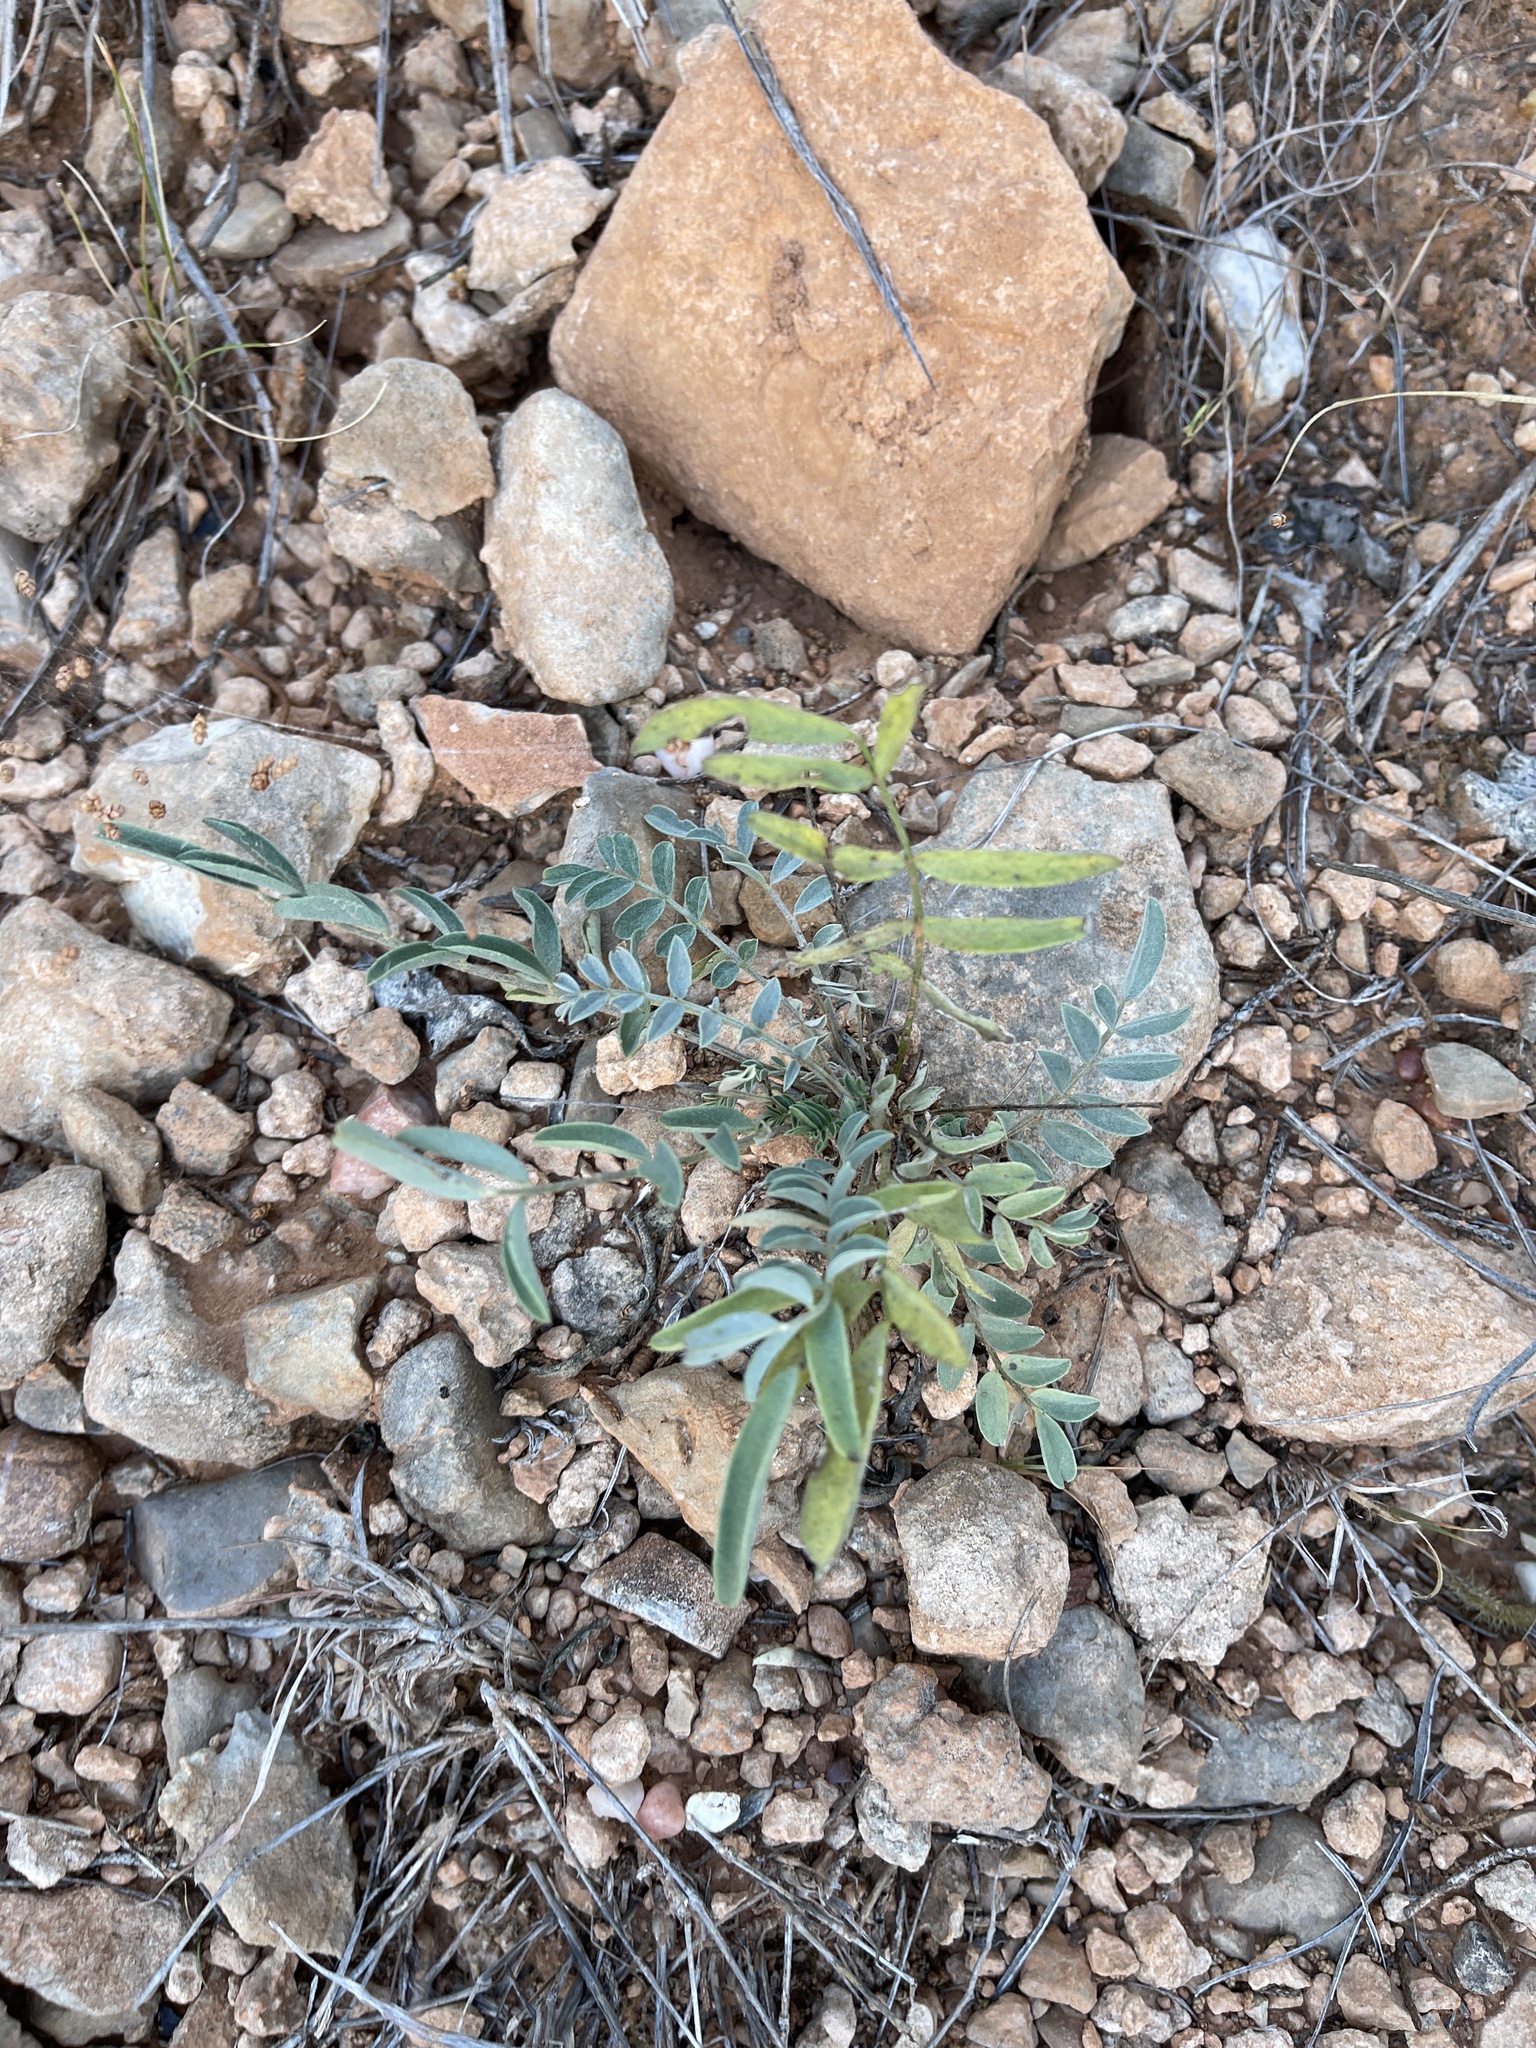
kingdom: Plantae
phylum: Tracheophyta
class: Magnoliopsida
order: Fabales
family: Fabaceae
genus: Astragalus
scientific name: Astragalus lotiflorus
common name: Lotus milk-vetch
